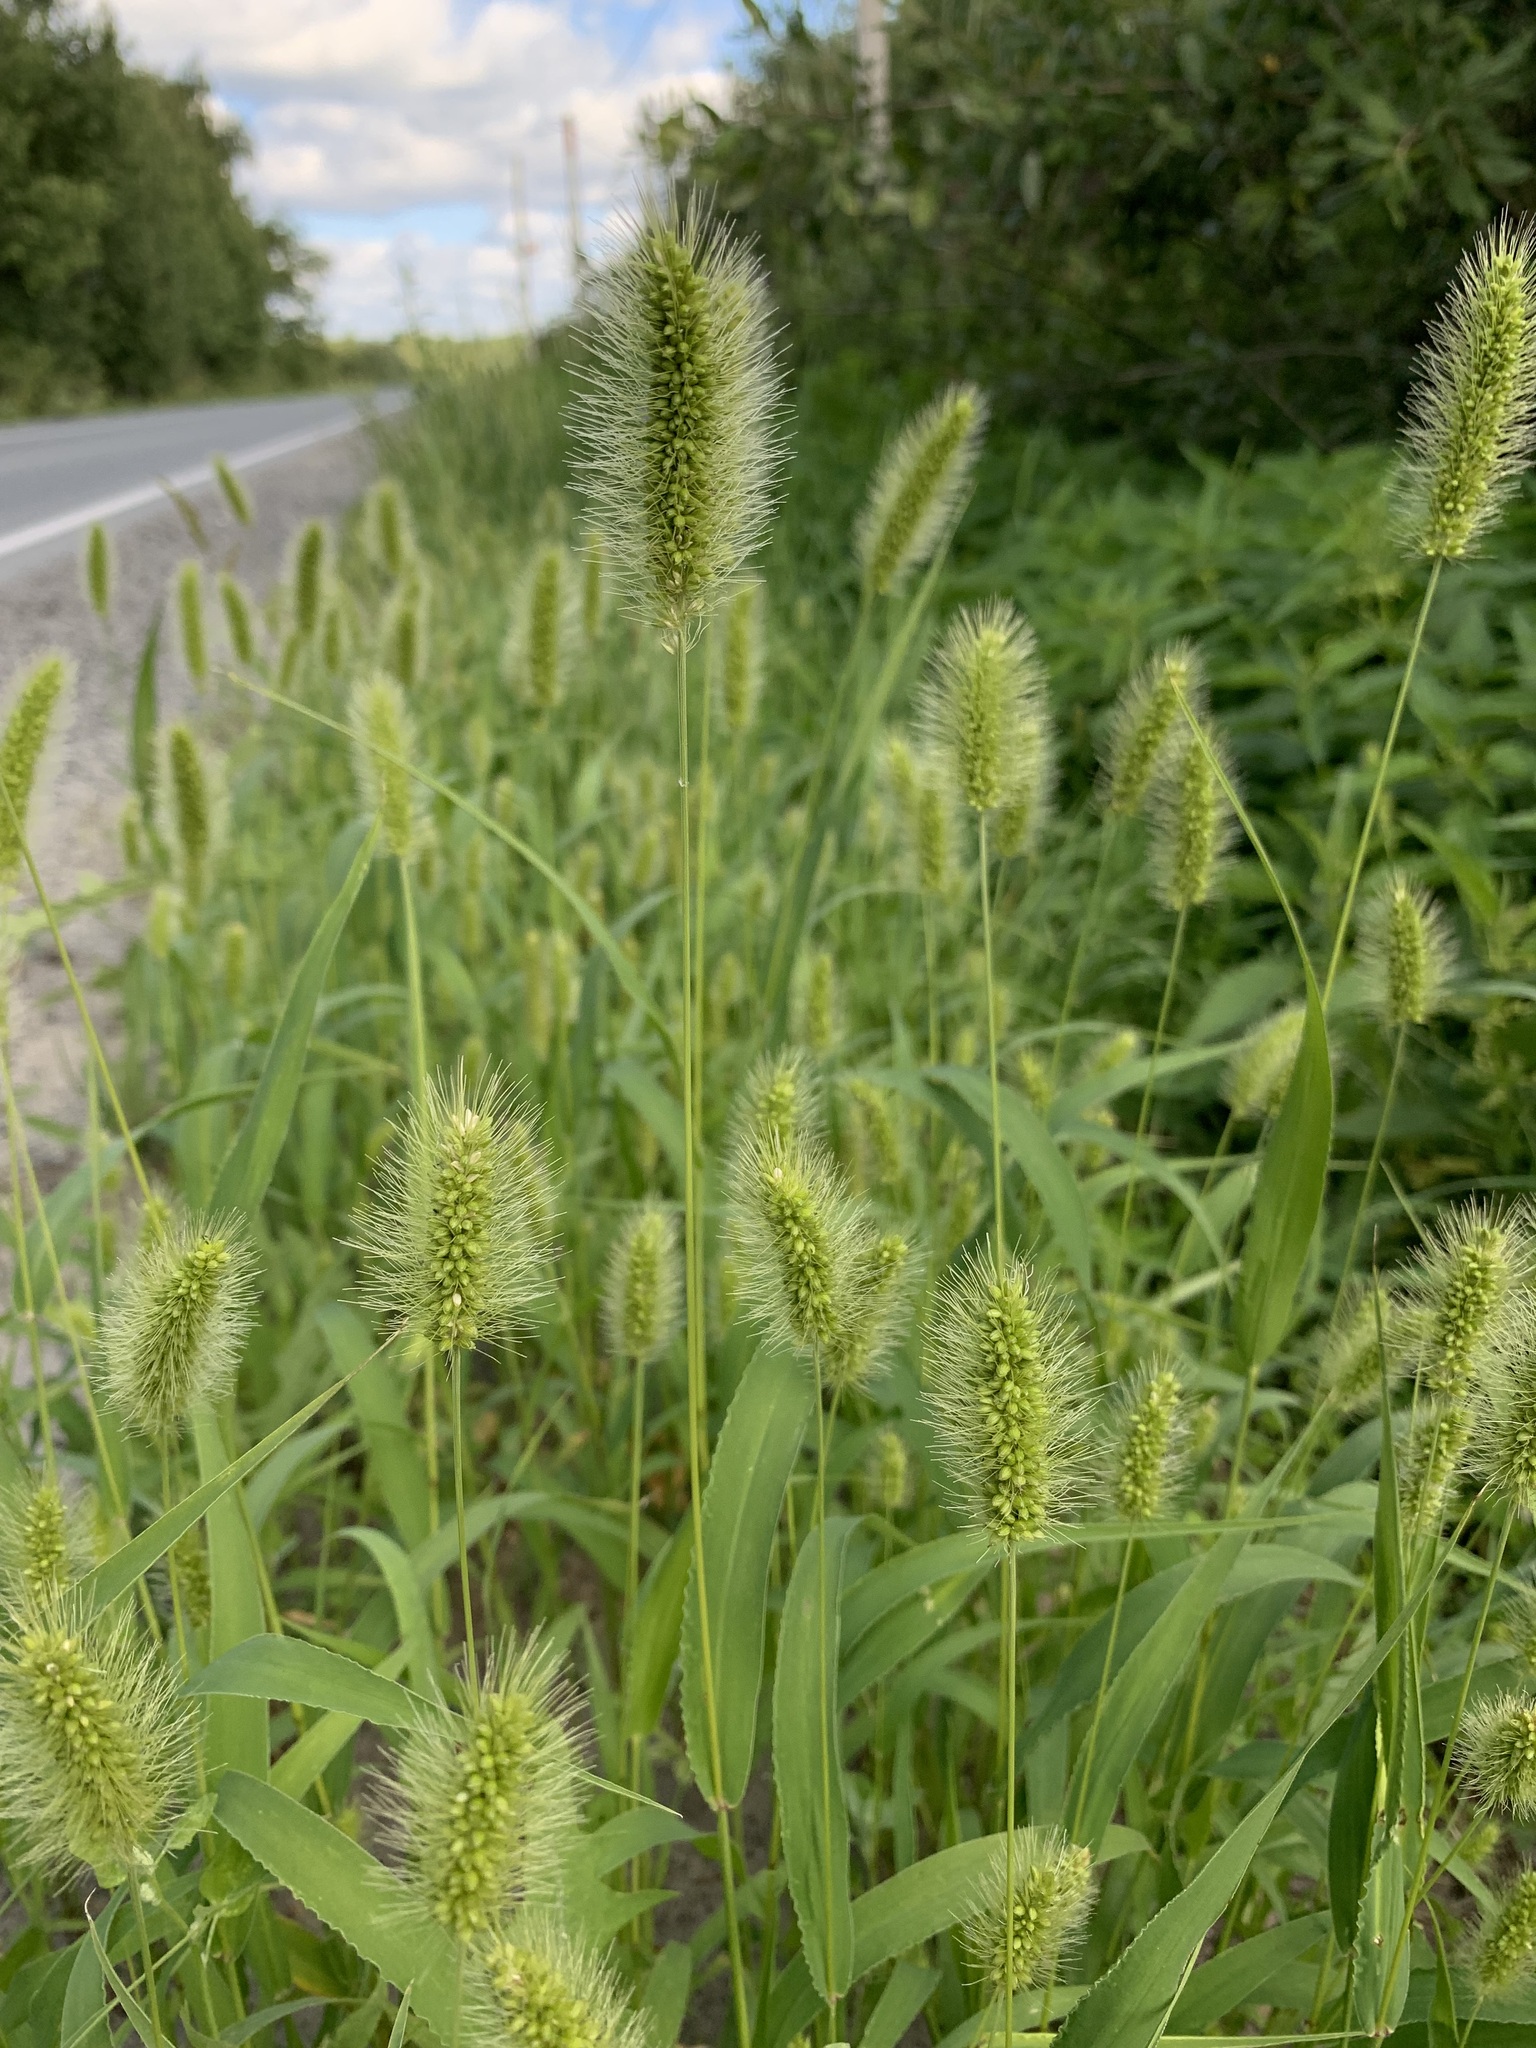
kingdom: Plantae
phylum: Tracheophyta
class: Liliopsida
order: Poales
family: Poaceae
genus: Setaria
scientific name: Setaria viridis
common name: Green bristlegrass
